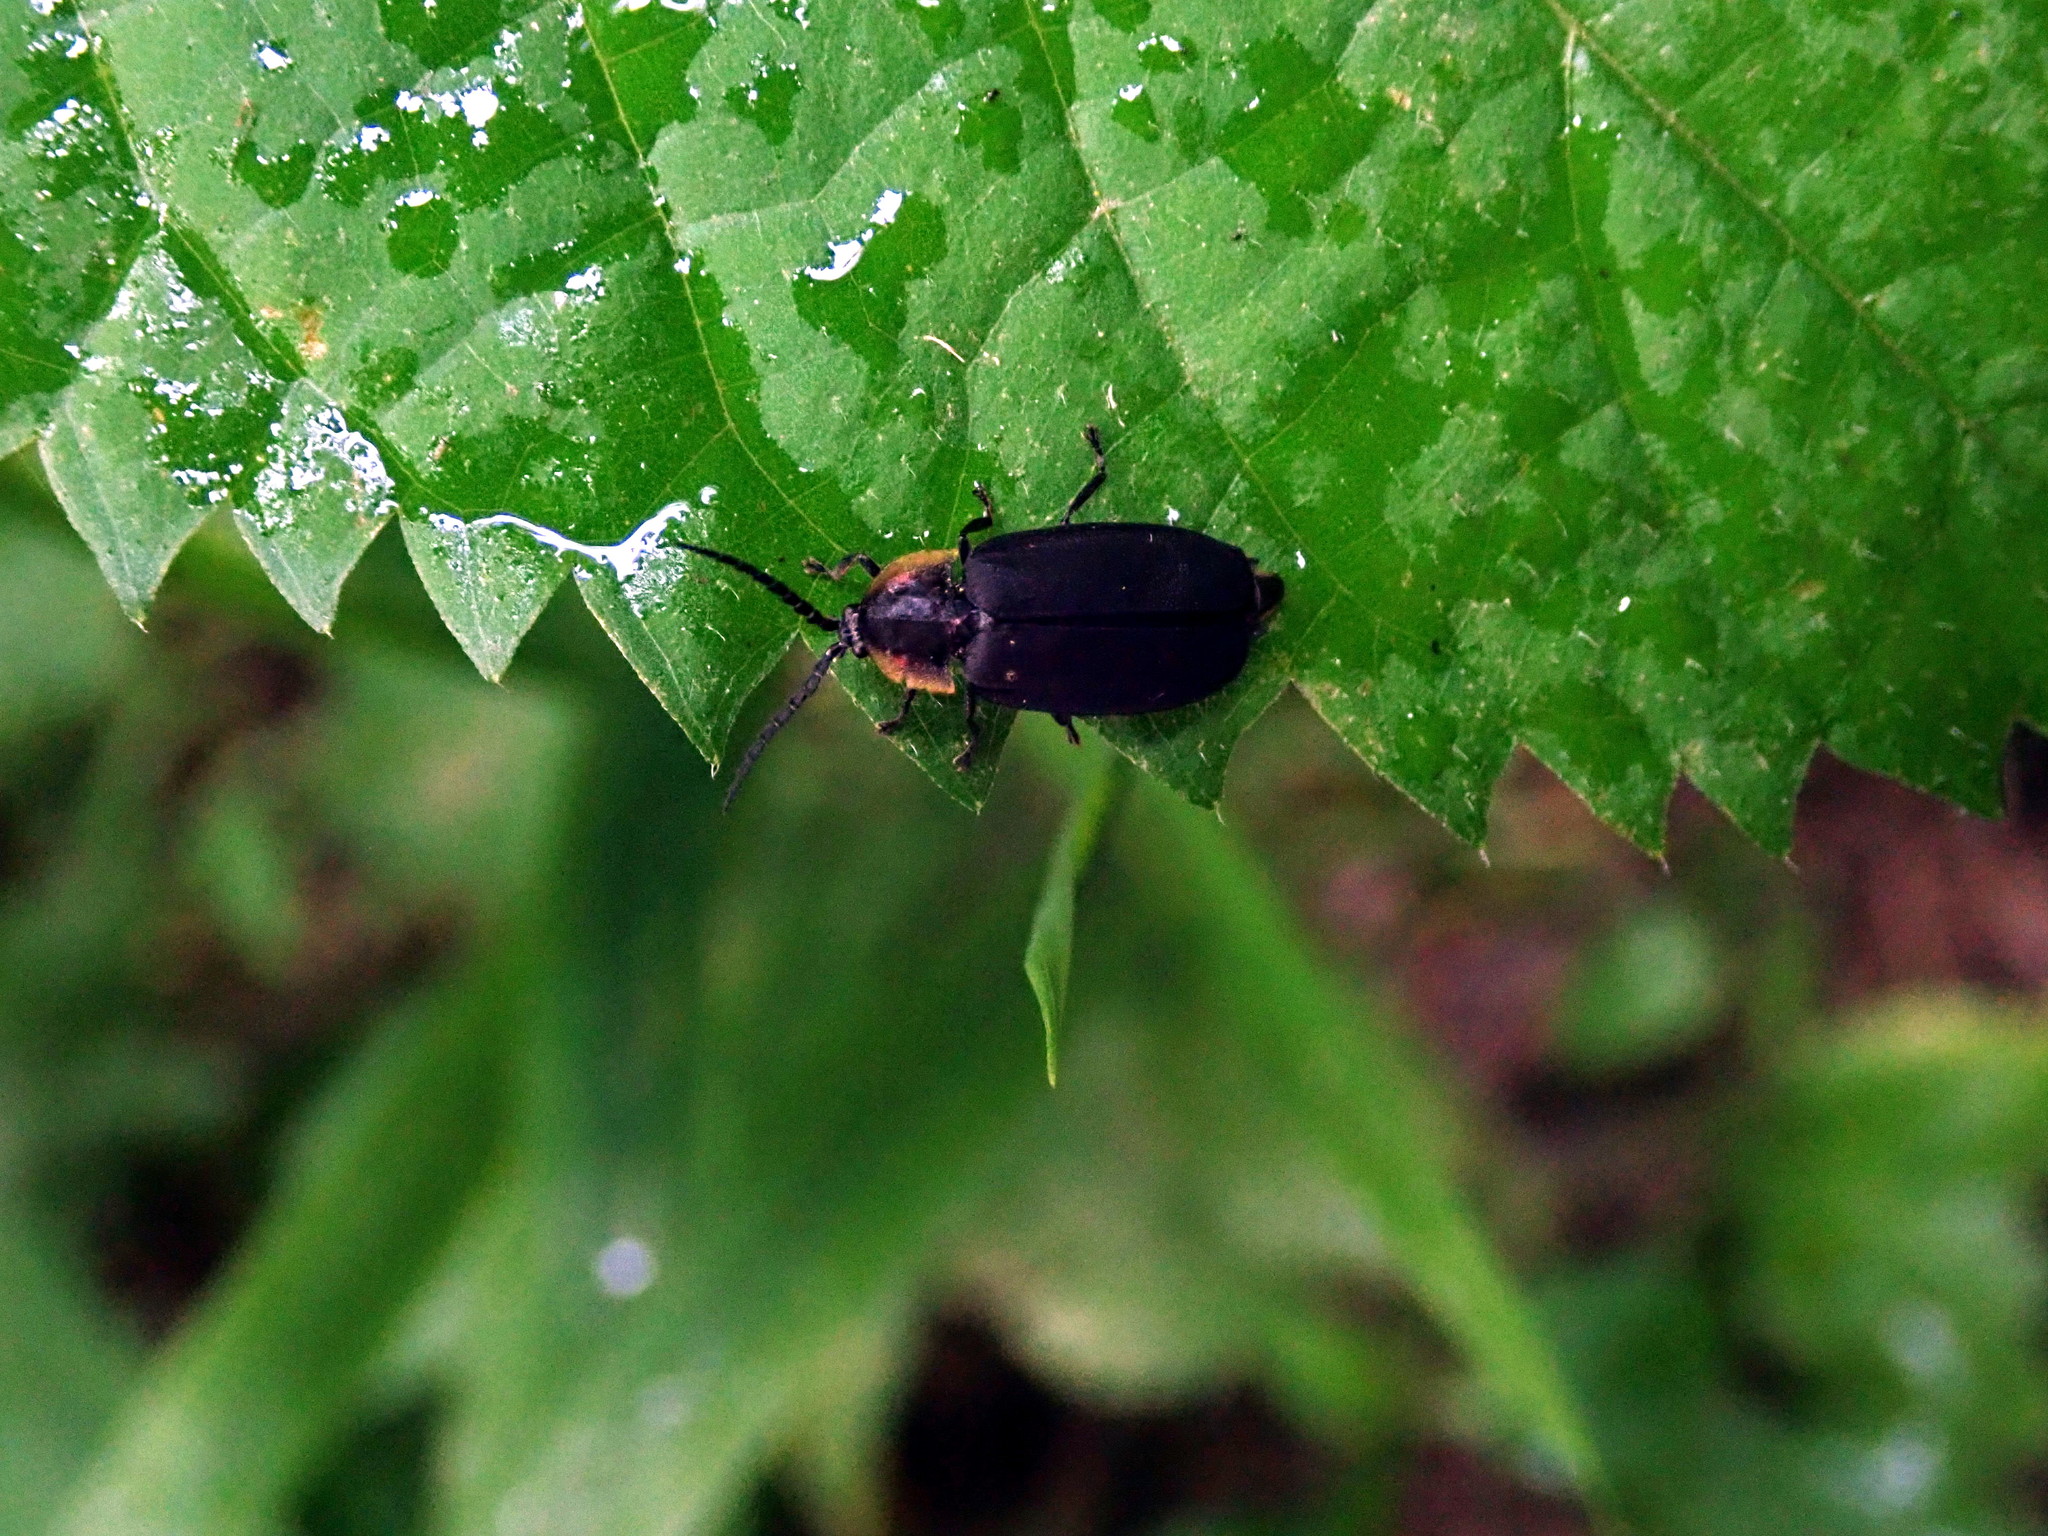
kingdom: Animalia
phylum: Arthropoda
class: Insecta
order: Coleoptera
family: Lampyridae
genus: Lucidota
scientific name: Lucidota atra
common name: Black firefly
